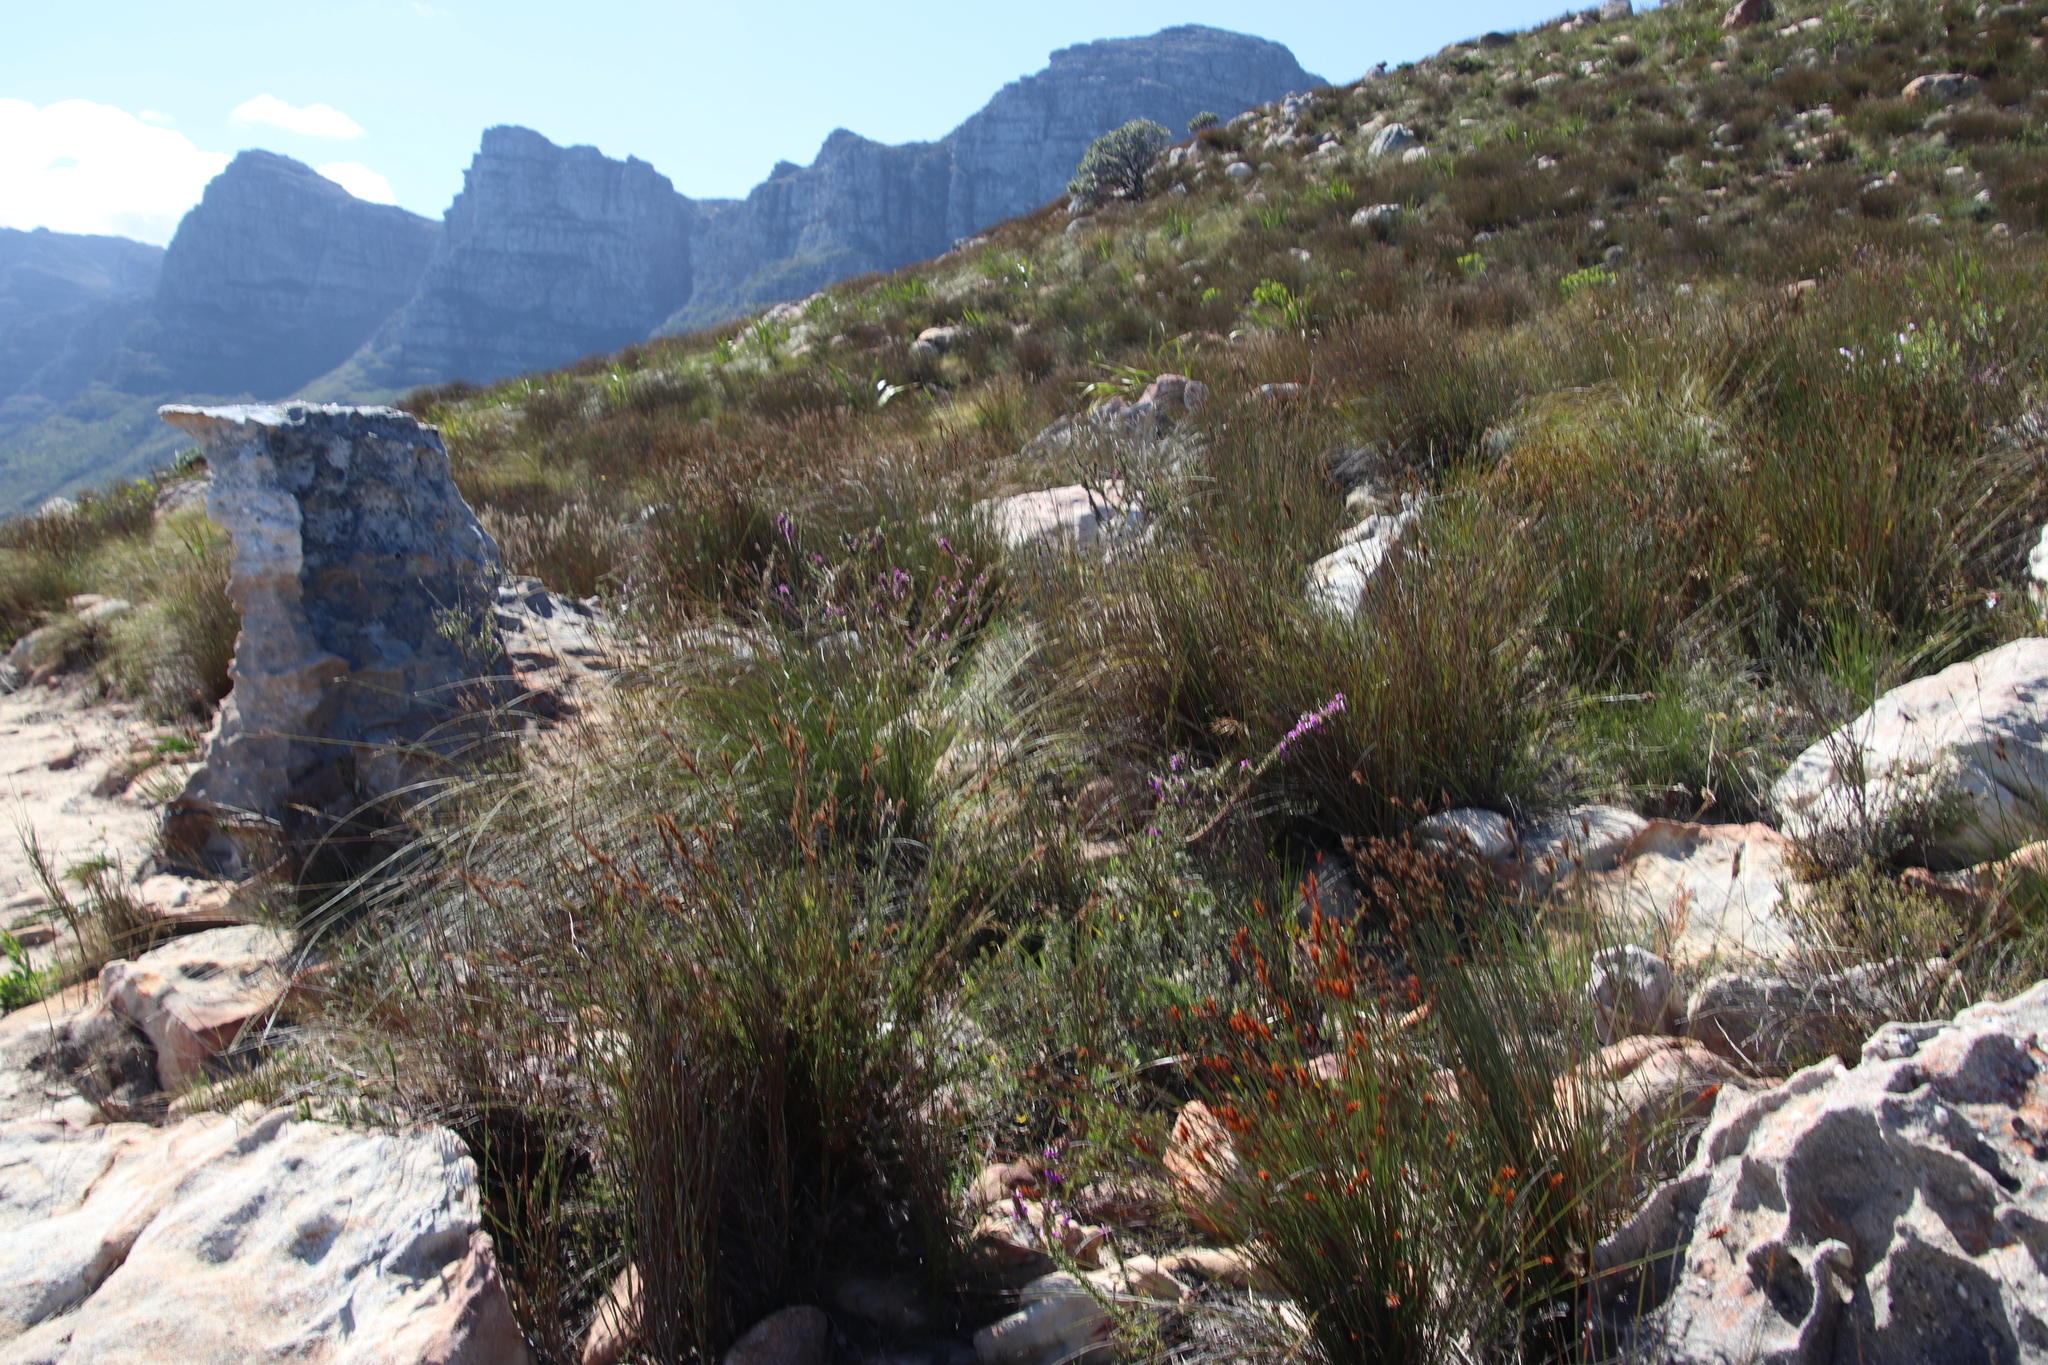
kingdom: Plantae
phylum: Tracheophyta
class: Magnoliopsida
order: Fabales
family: Polygalaceae
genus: Muraltia
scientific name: Muraltia heisteria
